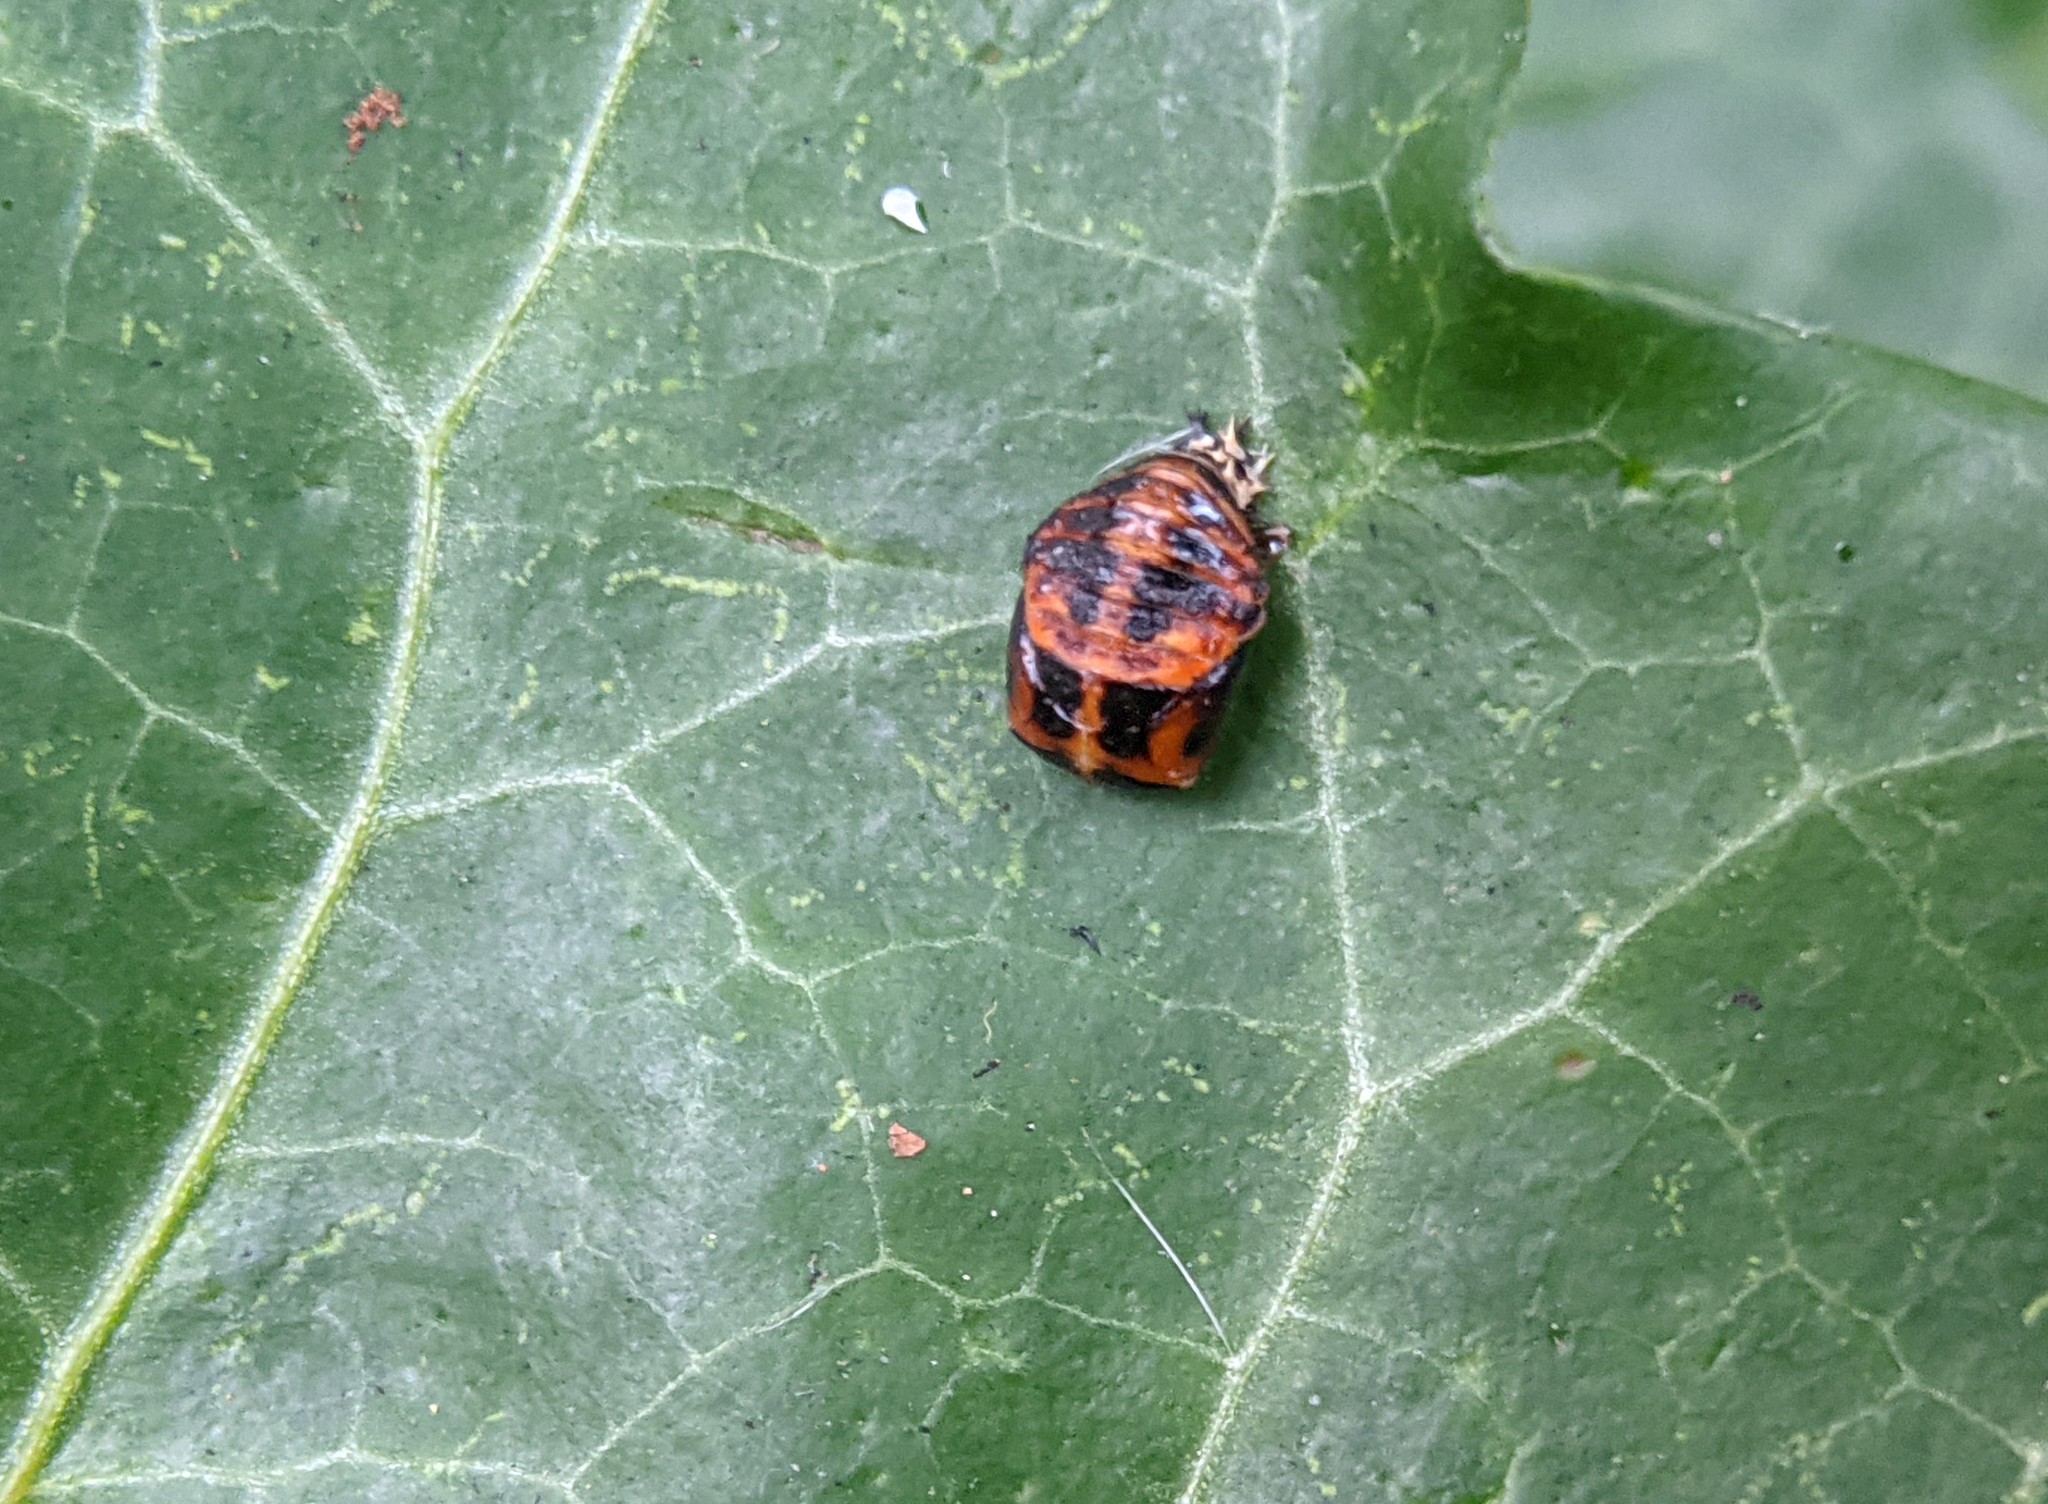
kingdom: Animalia
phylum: Arthropoda
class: Insecta
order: Coleoptera
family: Coccinellidae
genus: Harmonia
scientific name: Harmonia axyridis
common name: Harlequin ladybird
